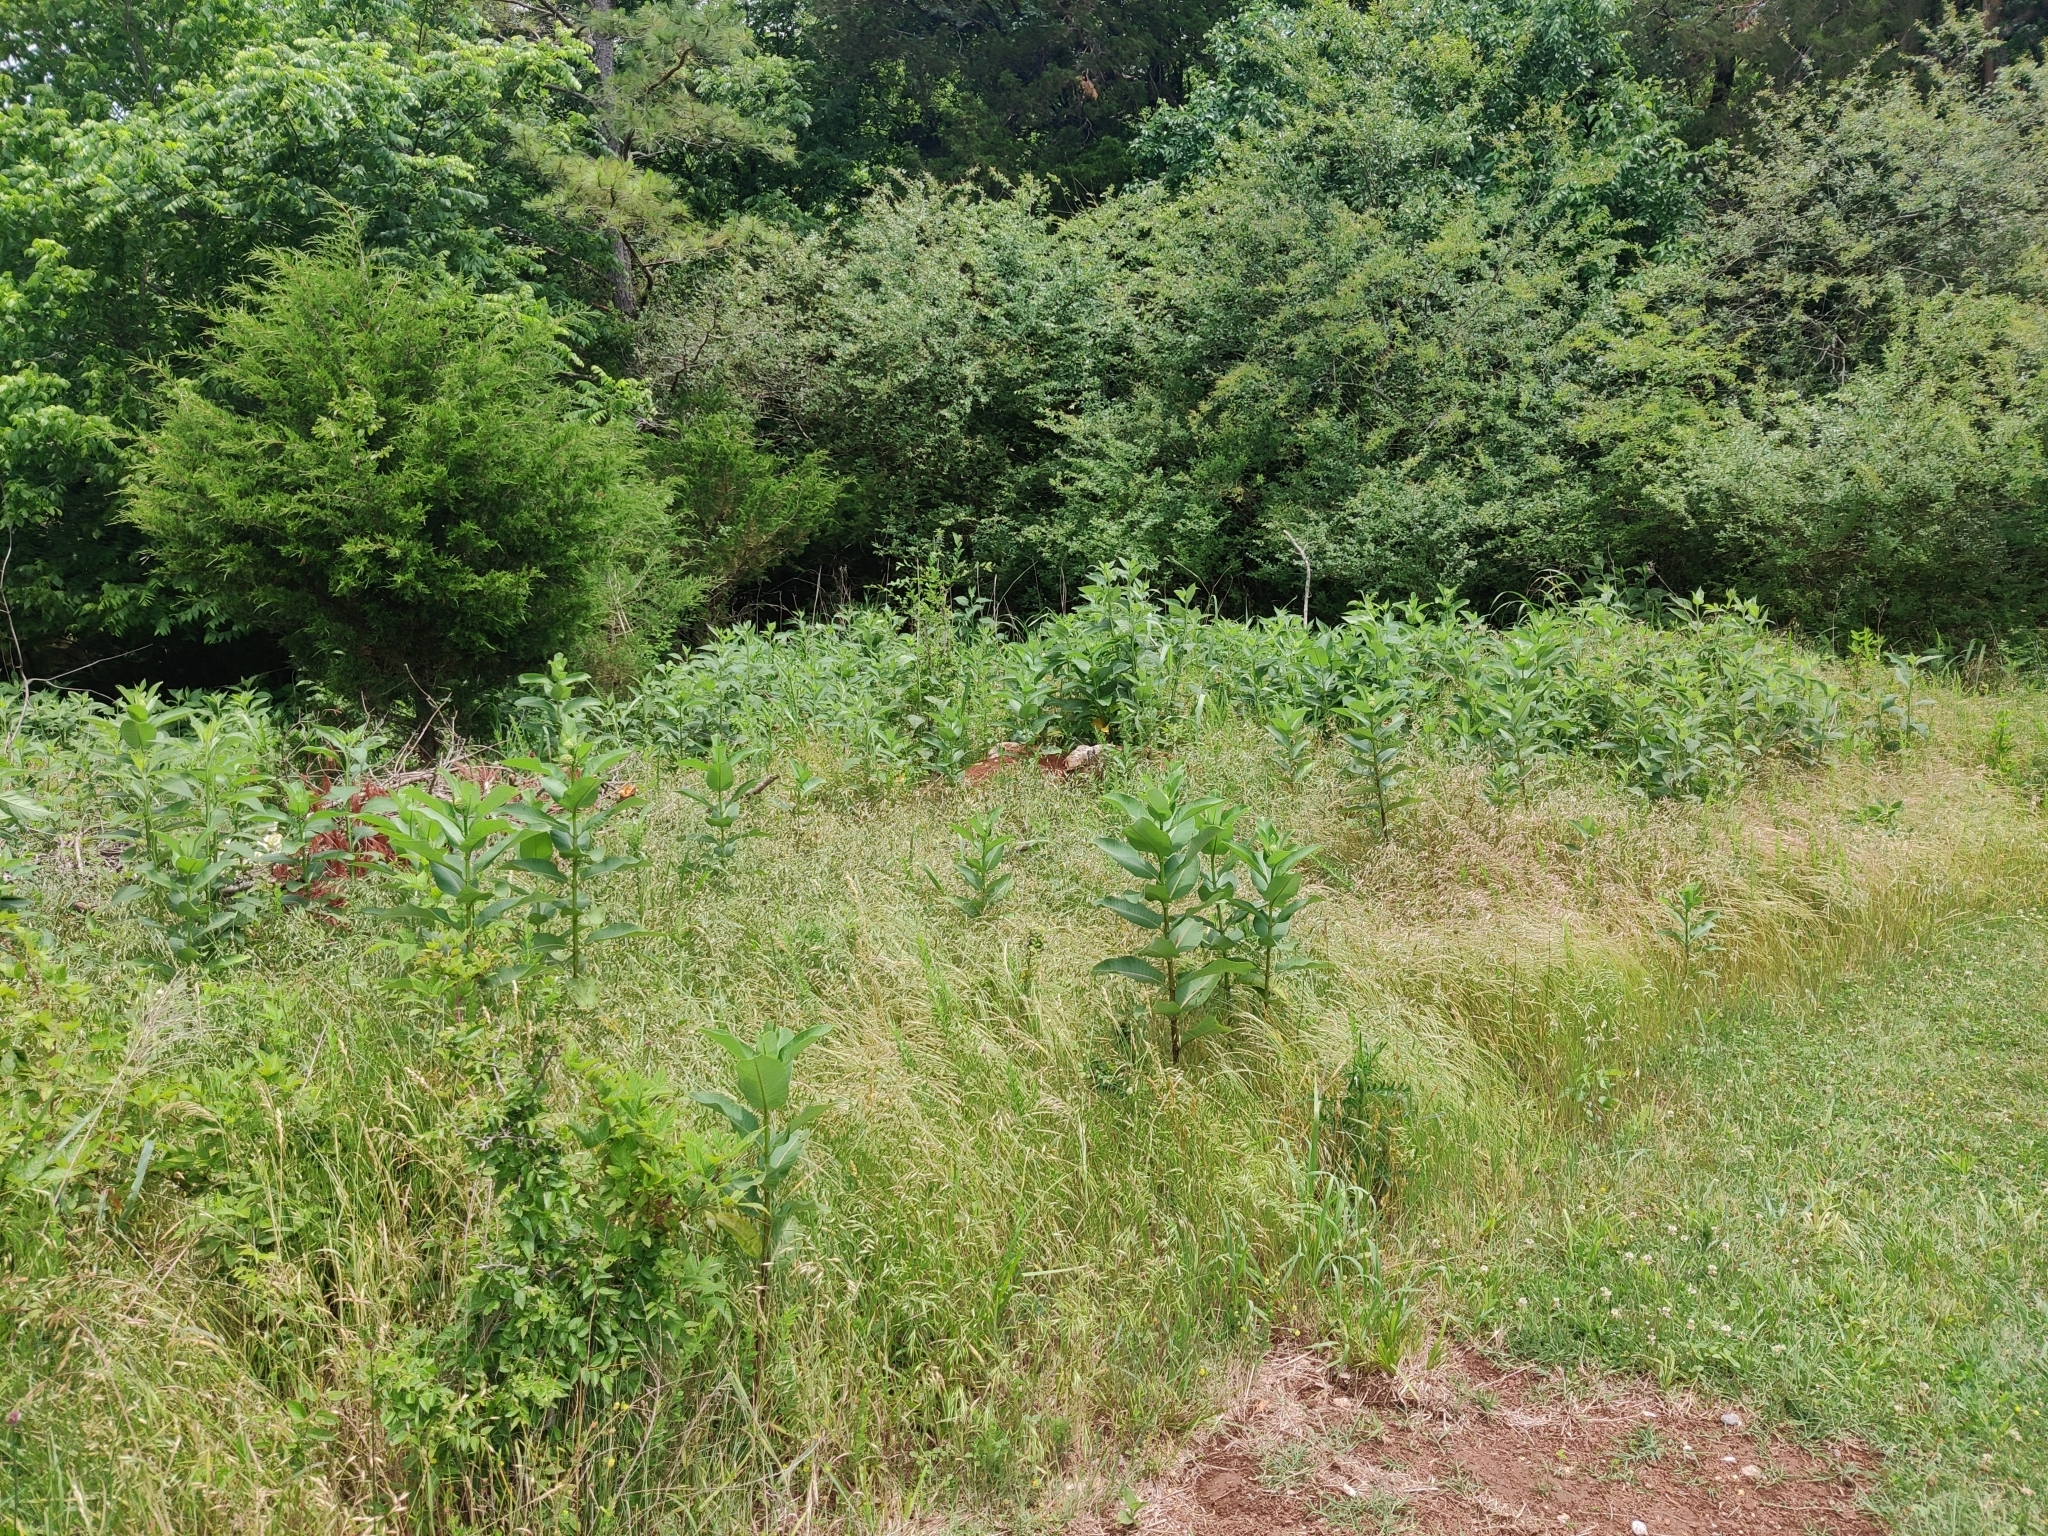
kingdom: Plantae
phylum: Tracheophyta
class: Magnoliopsida
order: Gentianales
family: Apocynaceae
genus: Asclepias
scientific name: Asclepias syriaca
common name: Common milkweed
